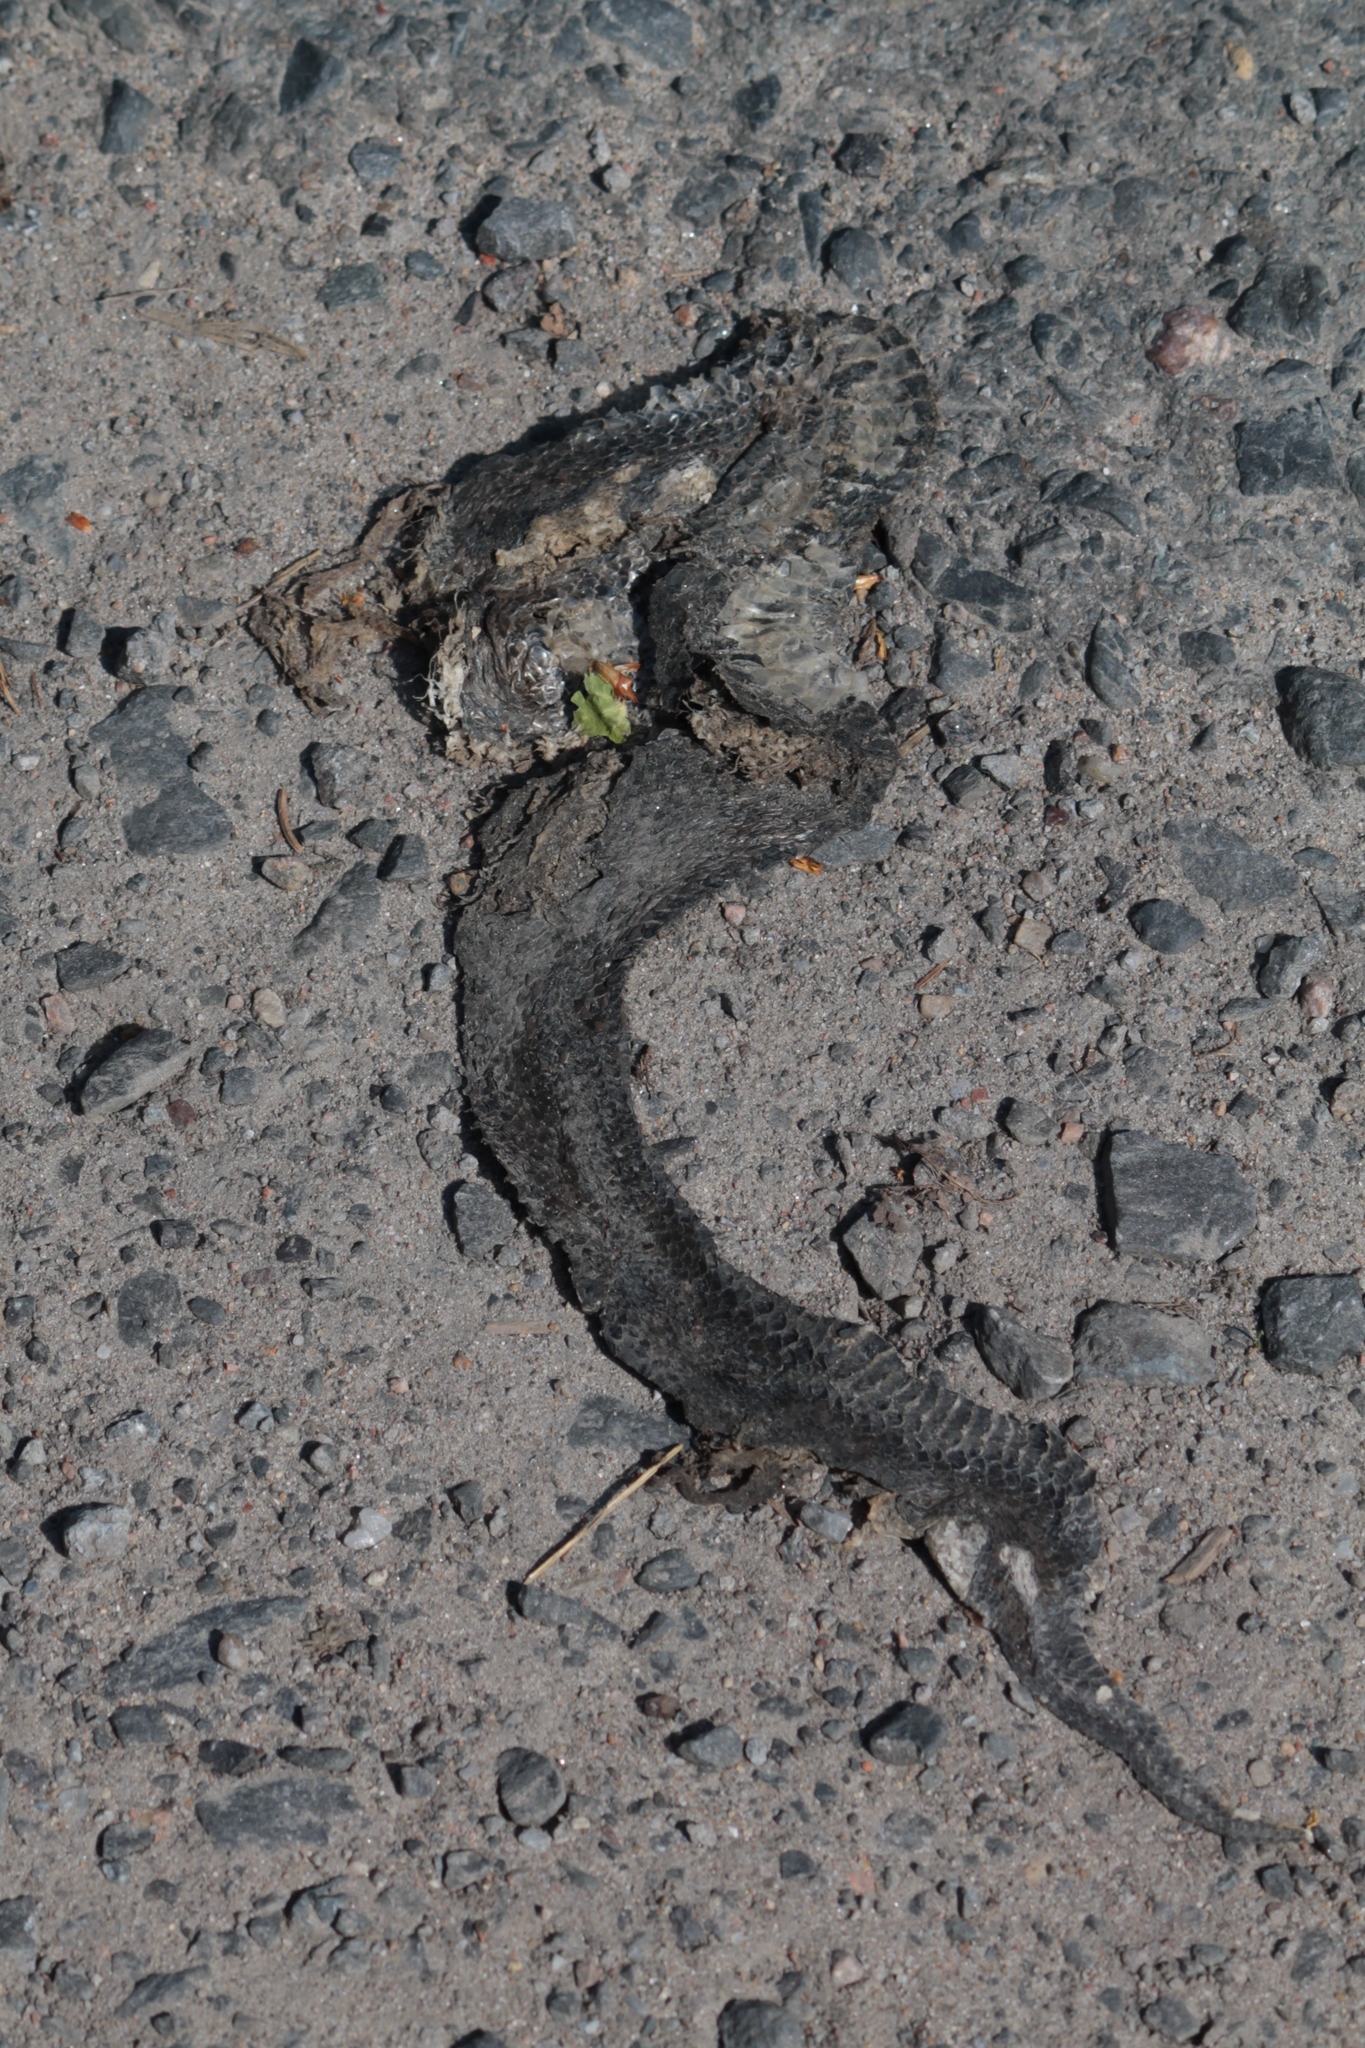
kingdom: Animalia
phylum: Chordata
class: Squamata
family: Viperidae
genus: Vipera
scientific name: Vipera berus
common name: Adder
